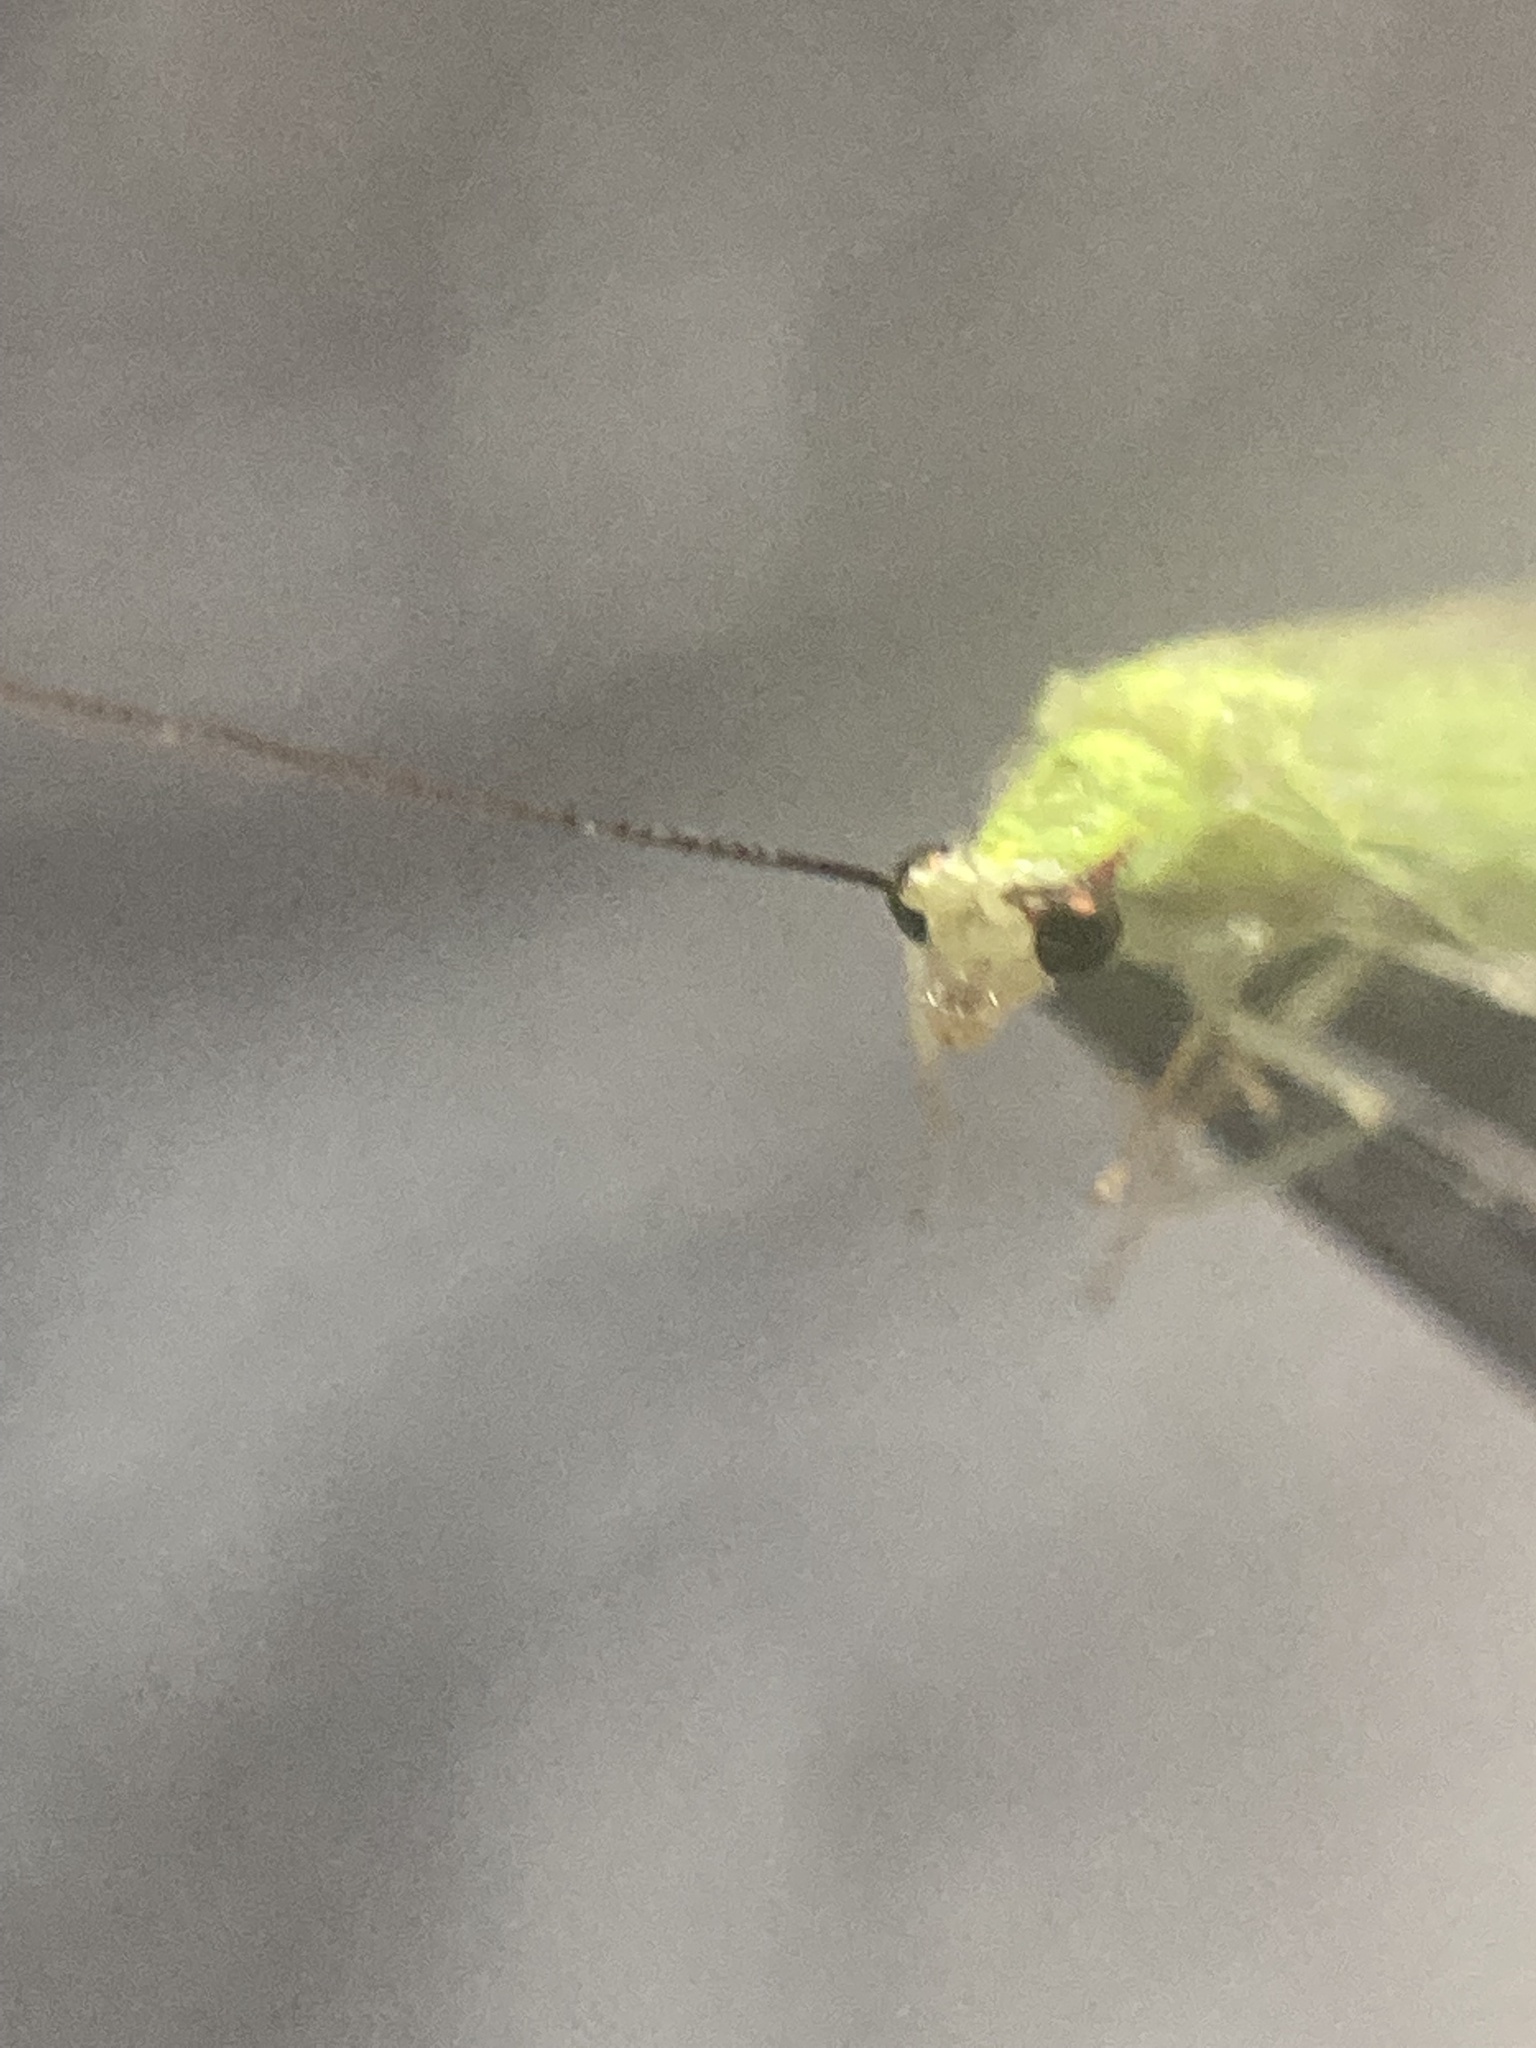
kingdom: Animalia
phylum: Arthropoda
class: Insecta
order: Neuroptera
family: Chrysopidae
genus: Ceraeochrysa
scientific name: Ceraeochrysa lineaticornis
